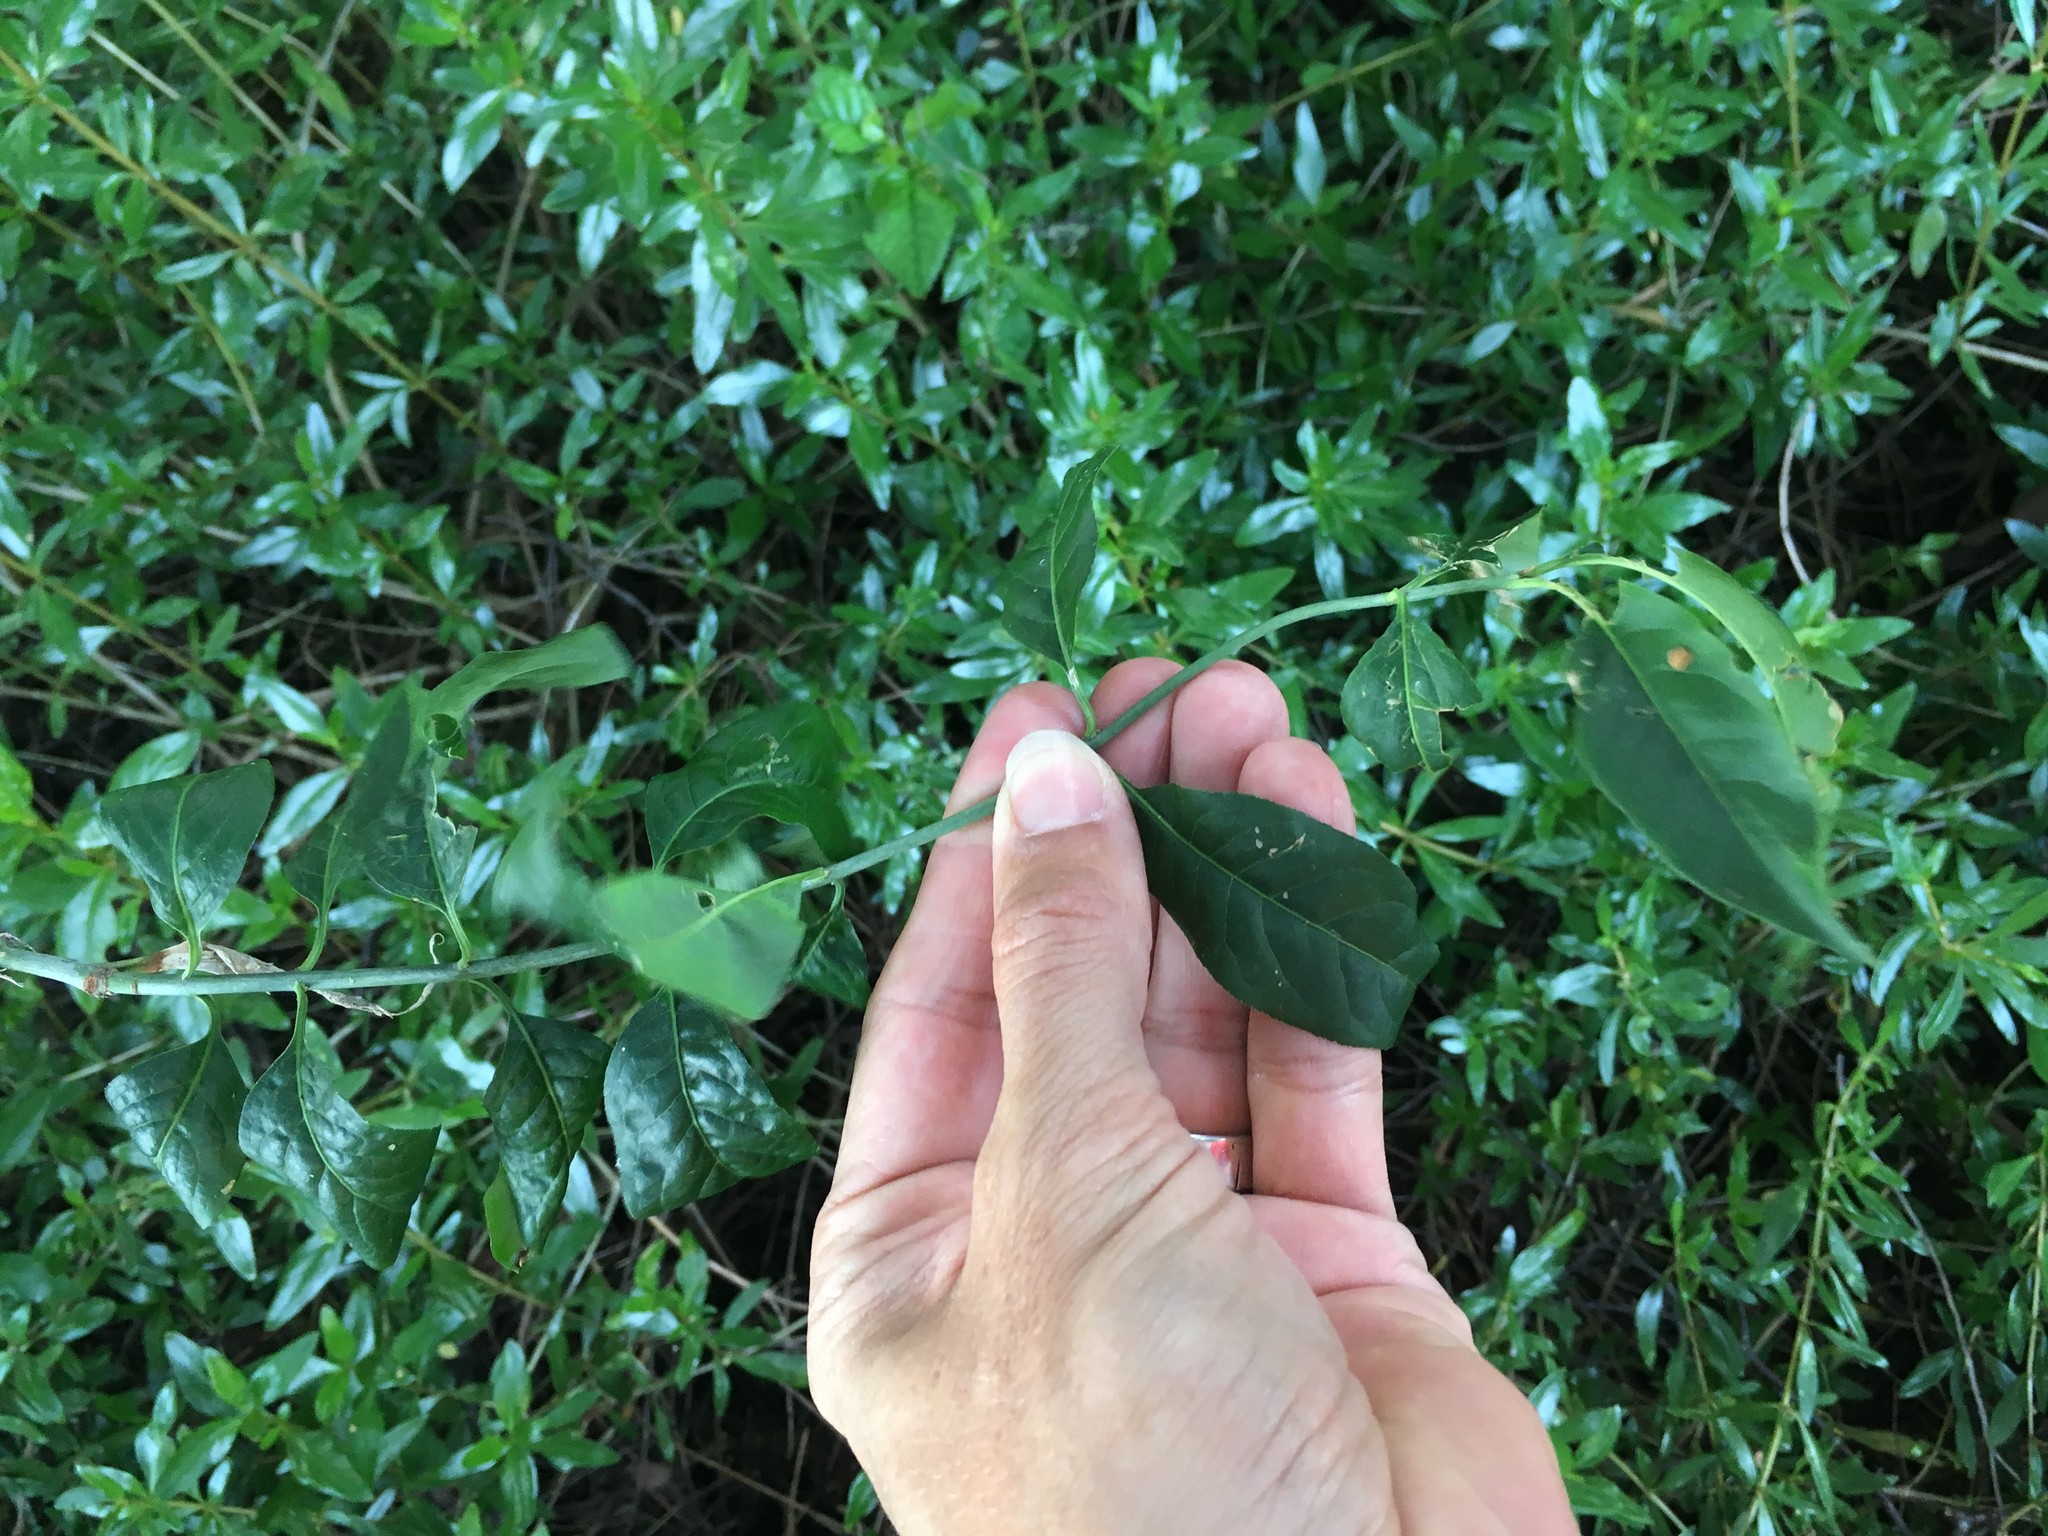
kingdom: Plantae
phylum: Tracheophyta
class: Magnoliopsida
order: Celastrales
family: Celastraceae
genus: Euonymus
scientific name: Euonymus europaeus
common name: Spindle
